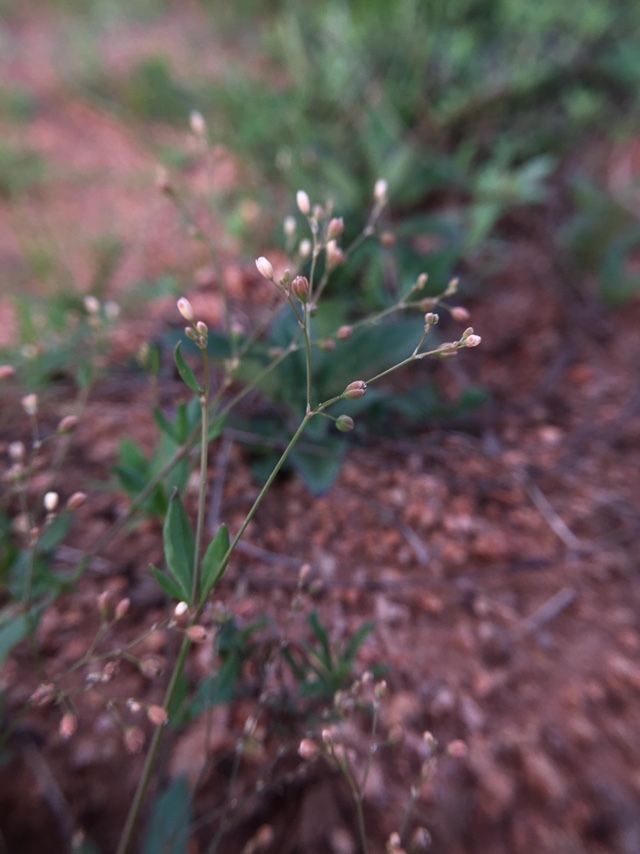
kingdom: Plantae
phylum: Tracheophyta
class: Magnoliopsida
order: Caryophyllales
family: Nyctaginaceae
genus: Boerhavia
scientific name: Boerhavia erecta
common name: Erect spiderling
